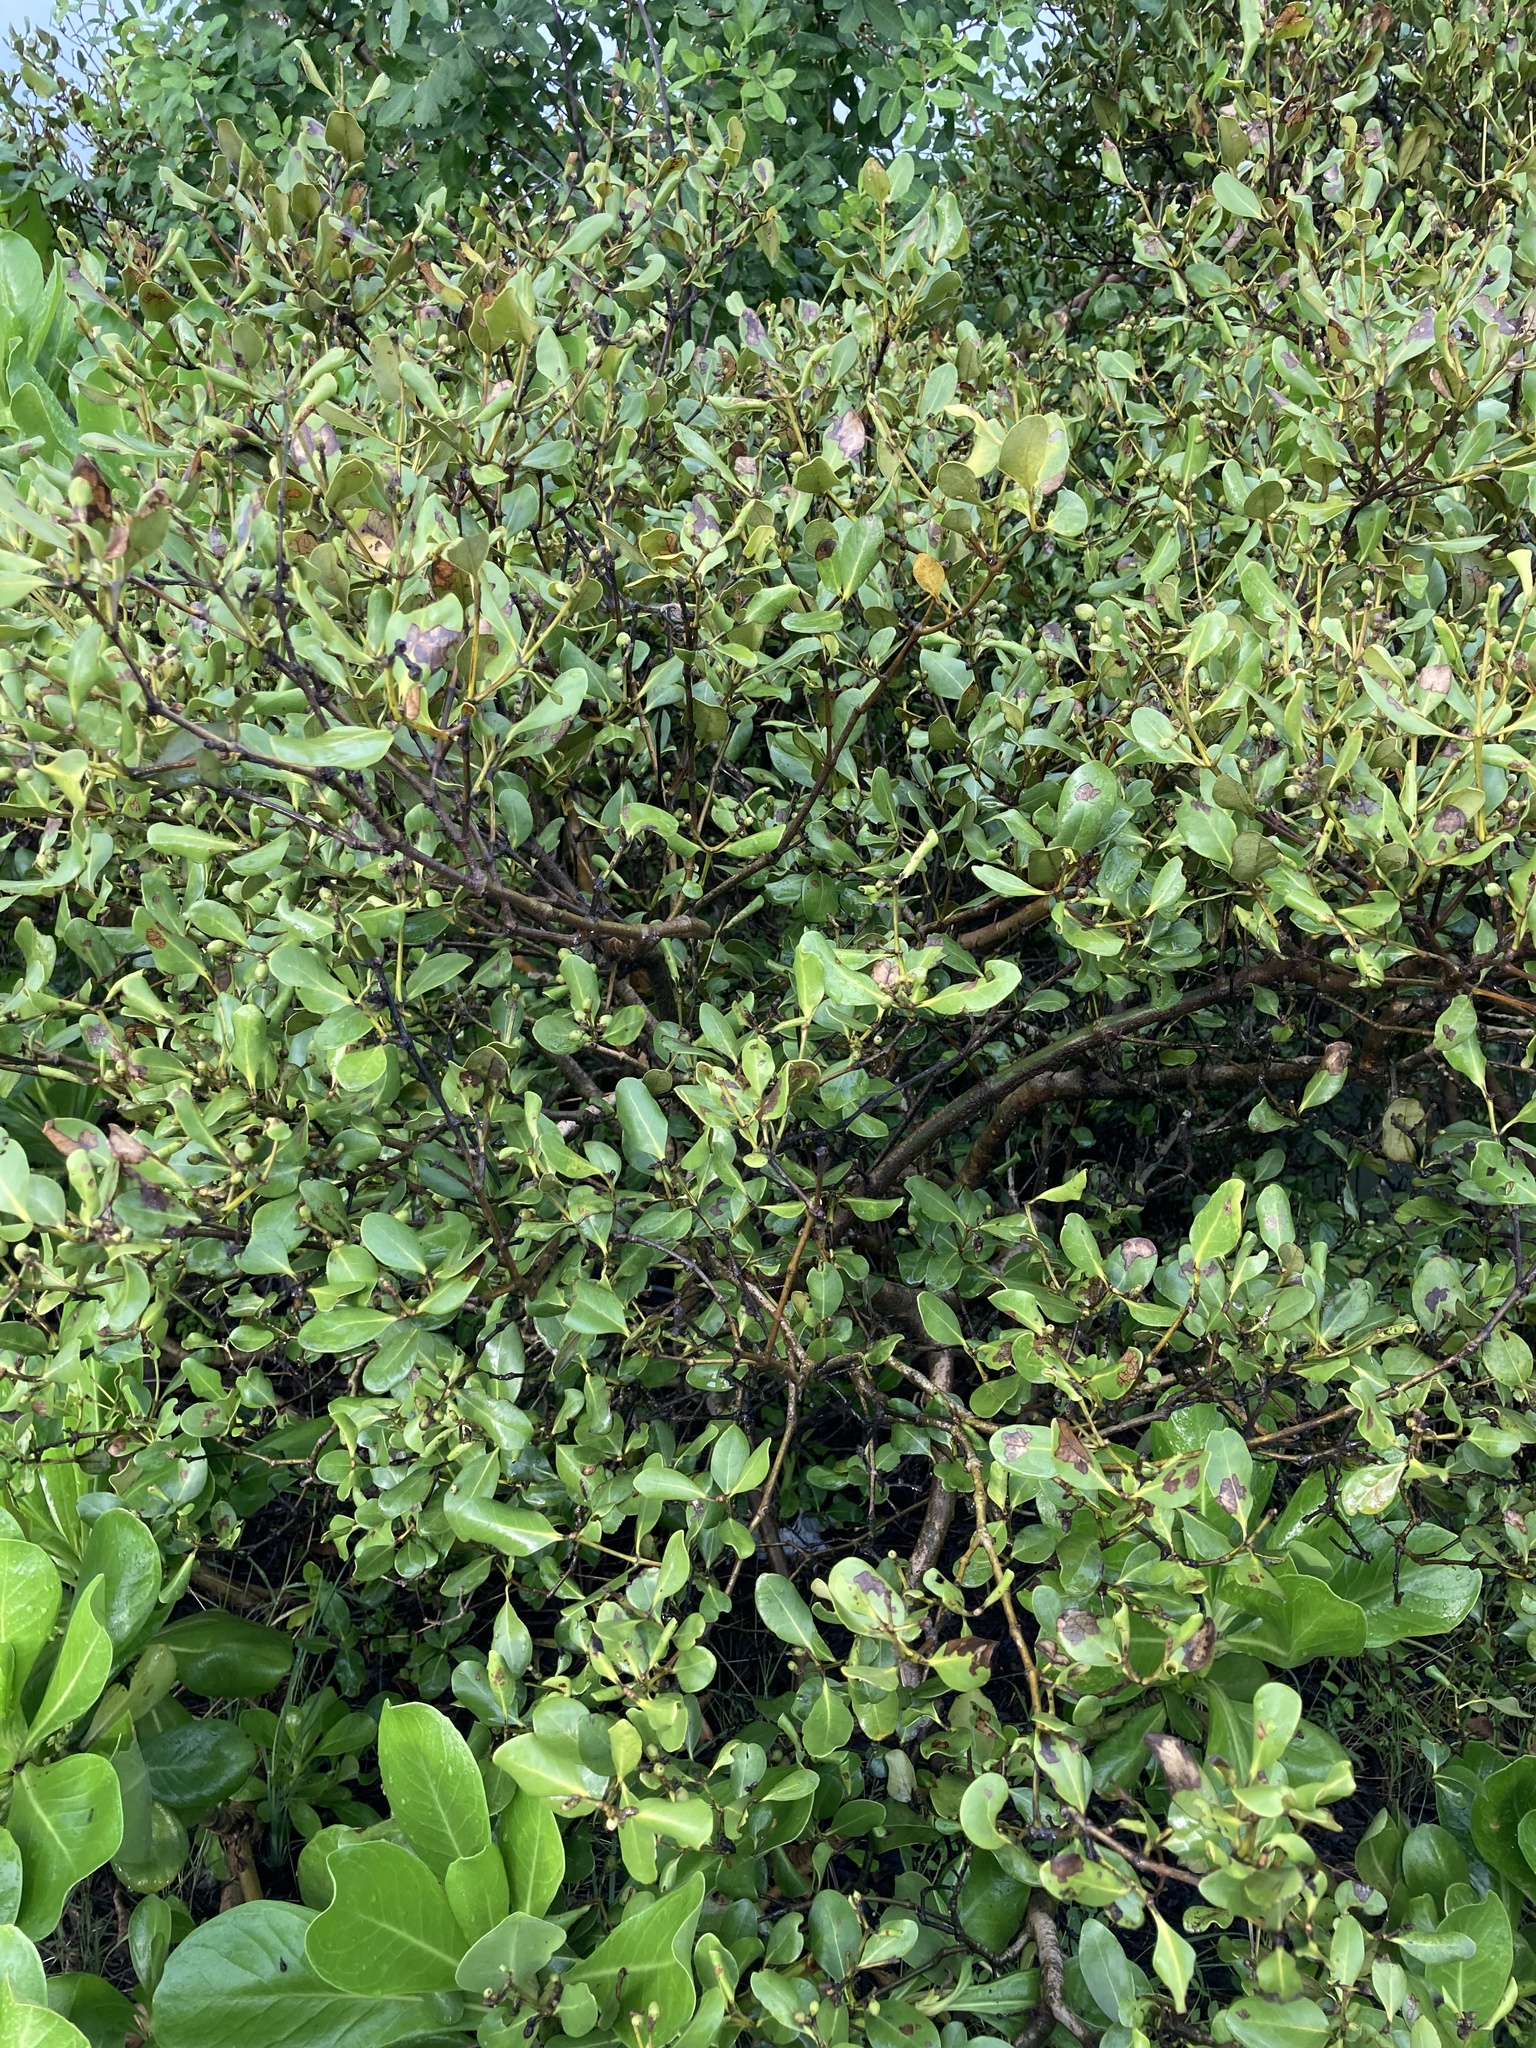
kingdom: Plantae
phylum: Tracheophyta
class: Magnoliopsida
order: Lamiales
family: Acanthaceae
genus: Avicennia
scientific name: Avicennia marina
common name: Gray mangrove
